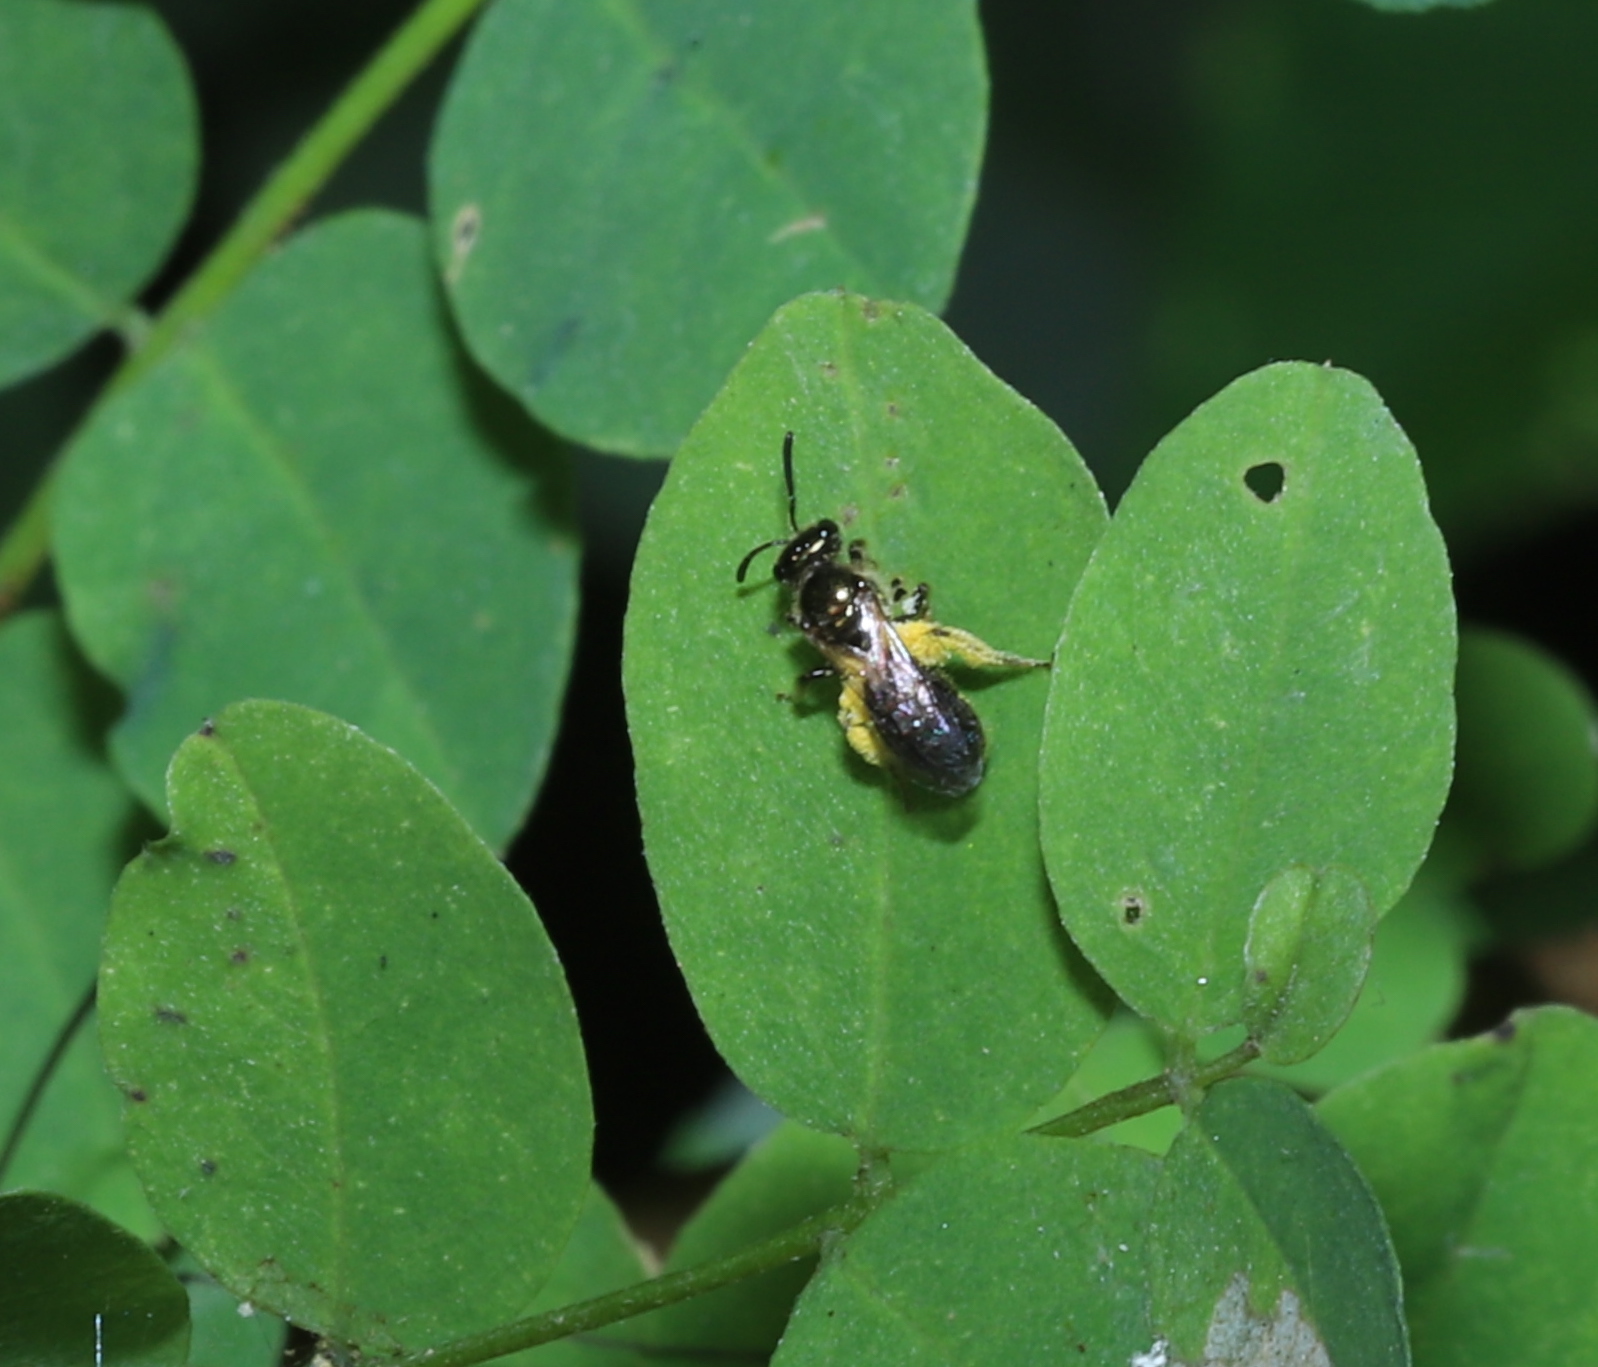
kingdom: Animalia
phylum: Arthropoda
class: Insecta
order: Hymenoptera
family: Halictidae
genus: Dialictus
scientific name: Dialictus
